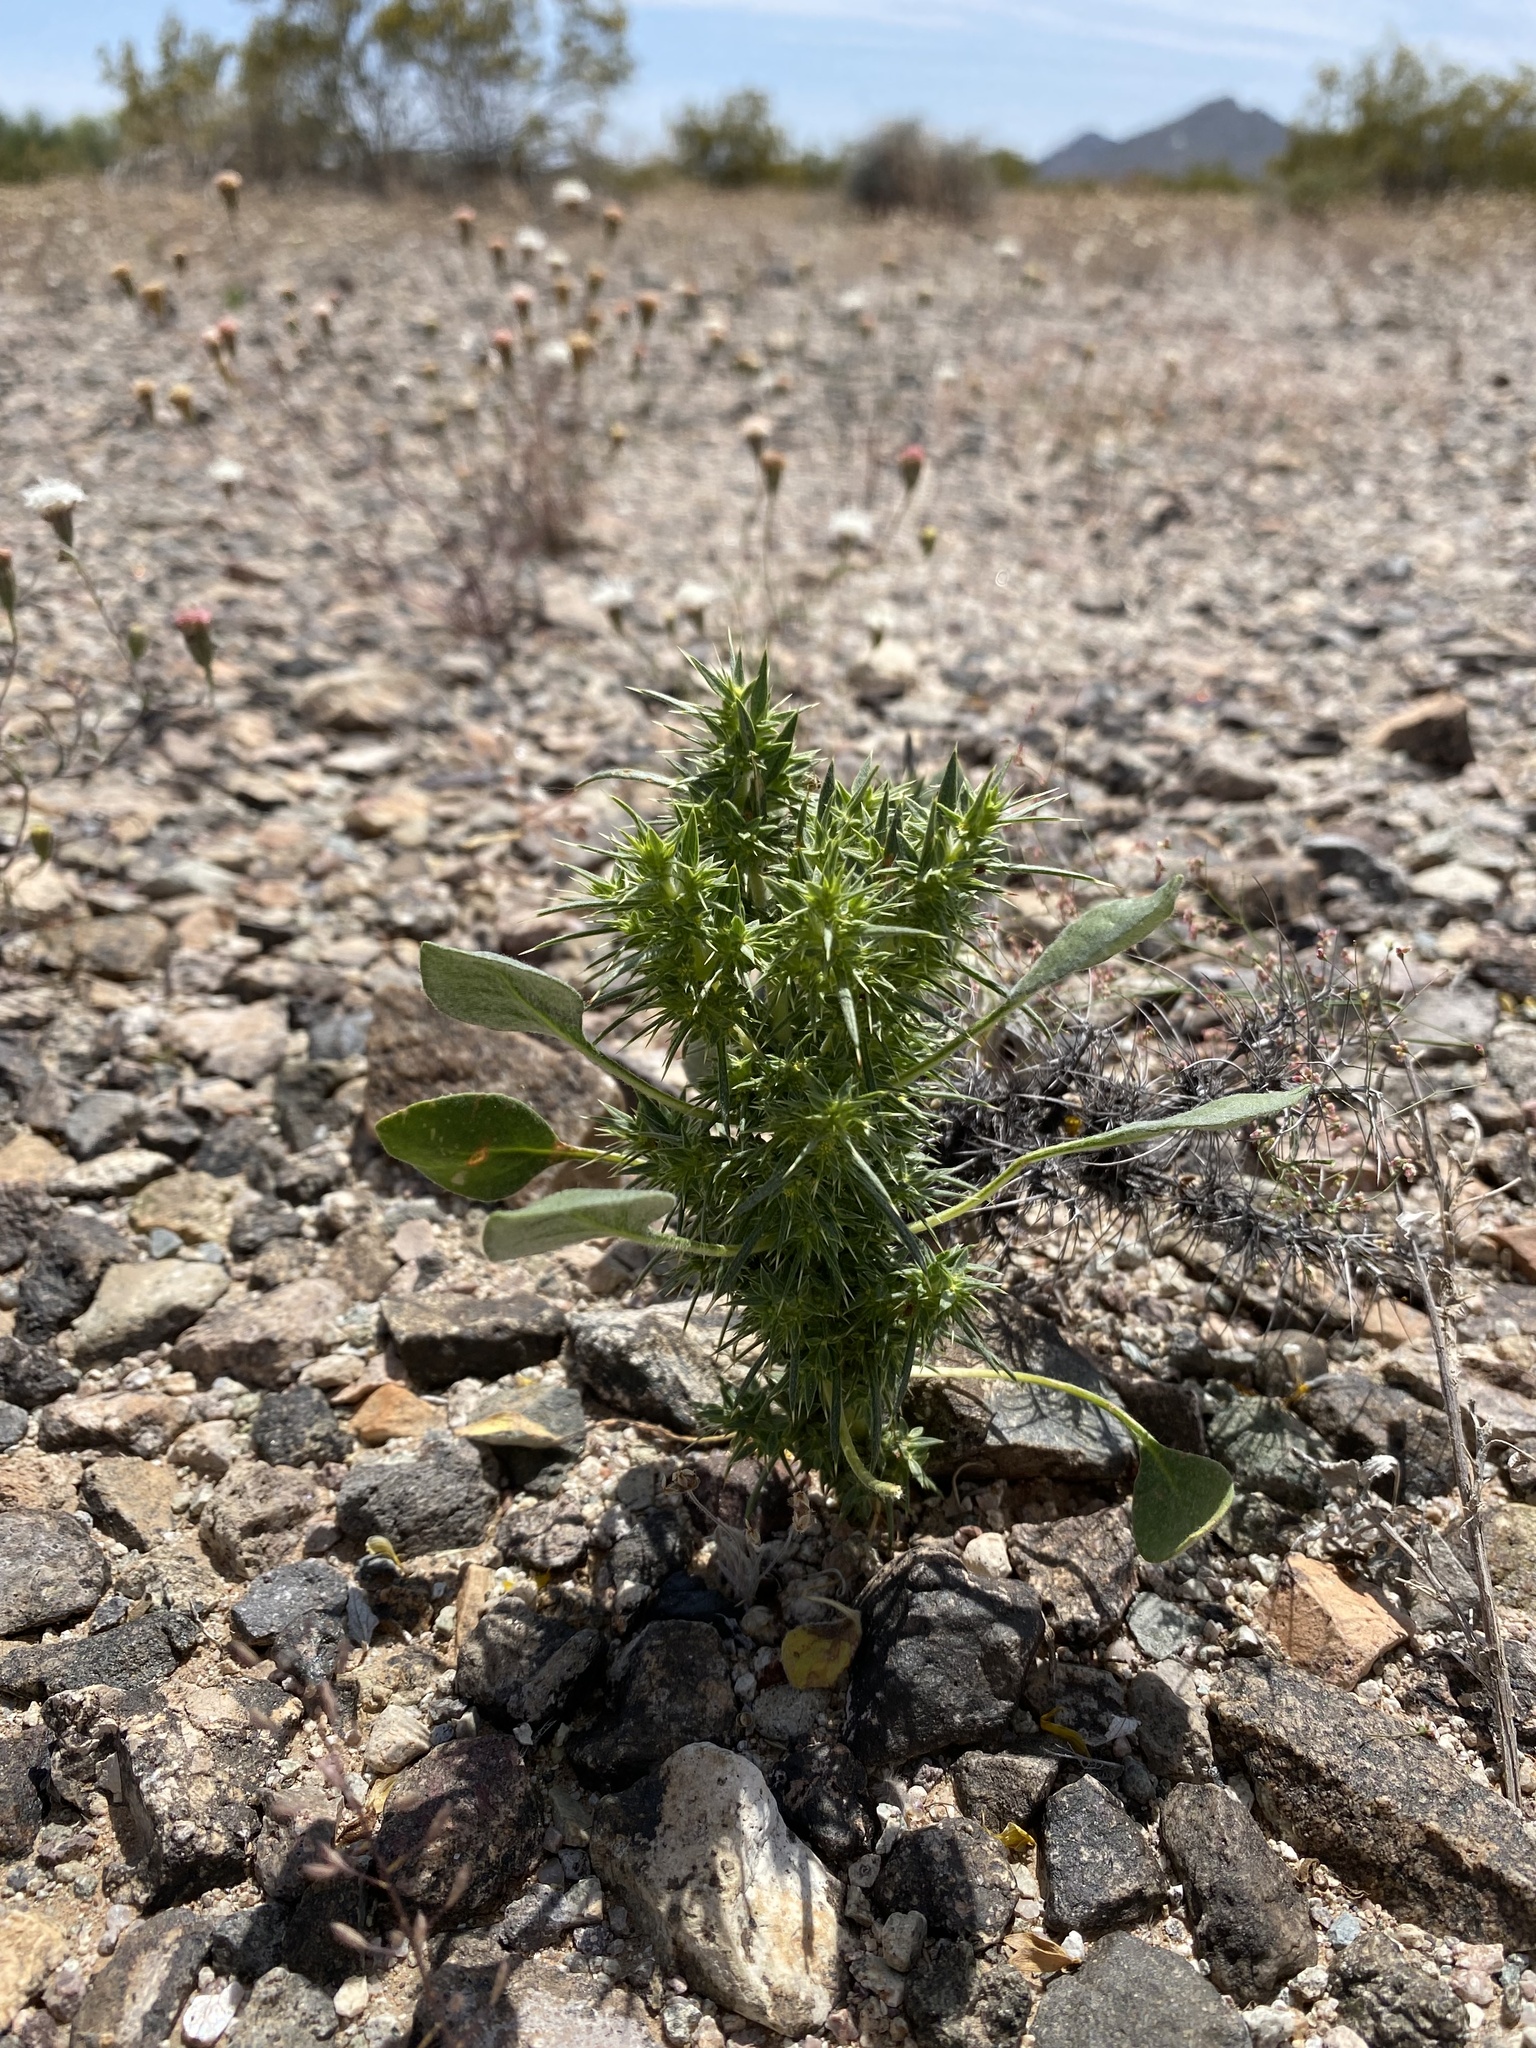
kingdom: Plantae
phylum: Tracheophyta
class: Magnoliopsida
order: Caryophyllales
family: Polygonaceae
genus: Chorizanthe
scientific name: Chorizanthe rigida
